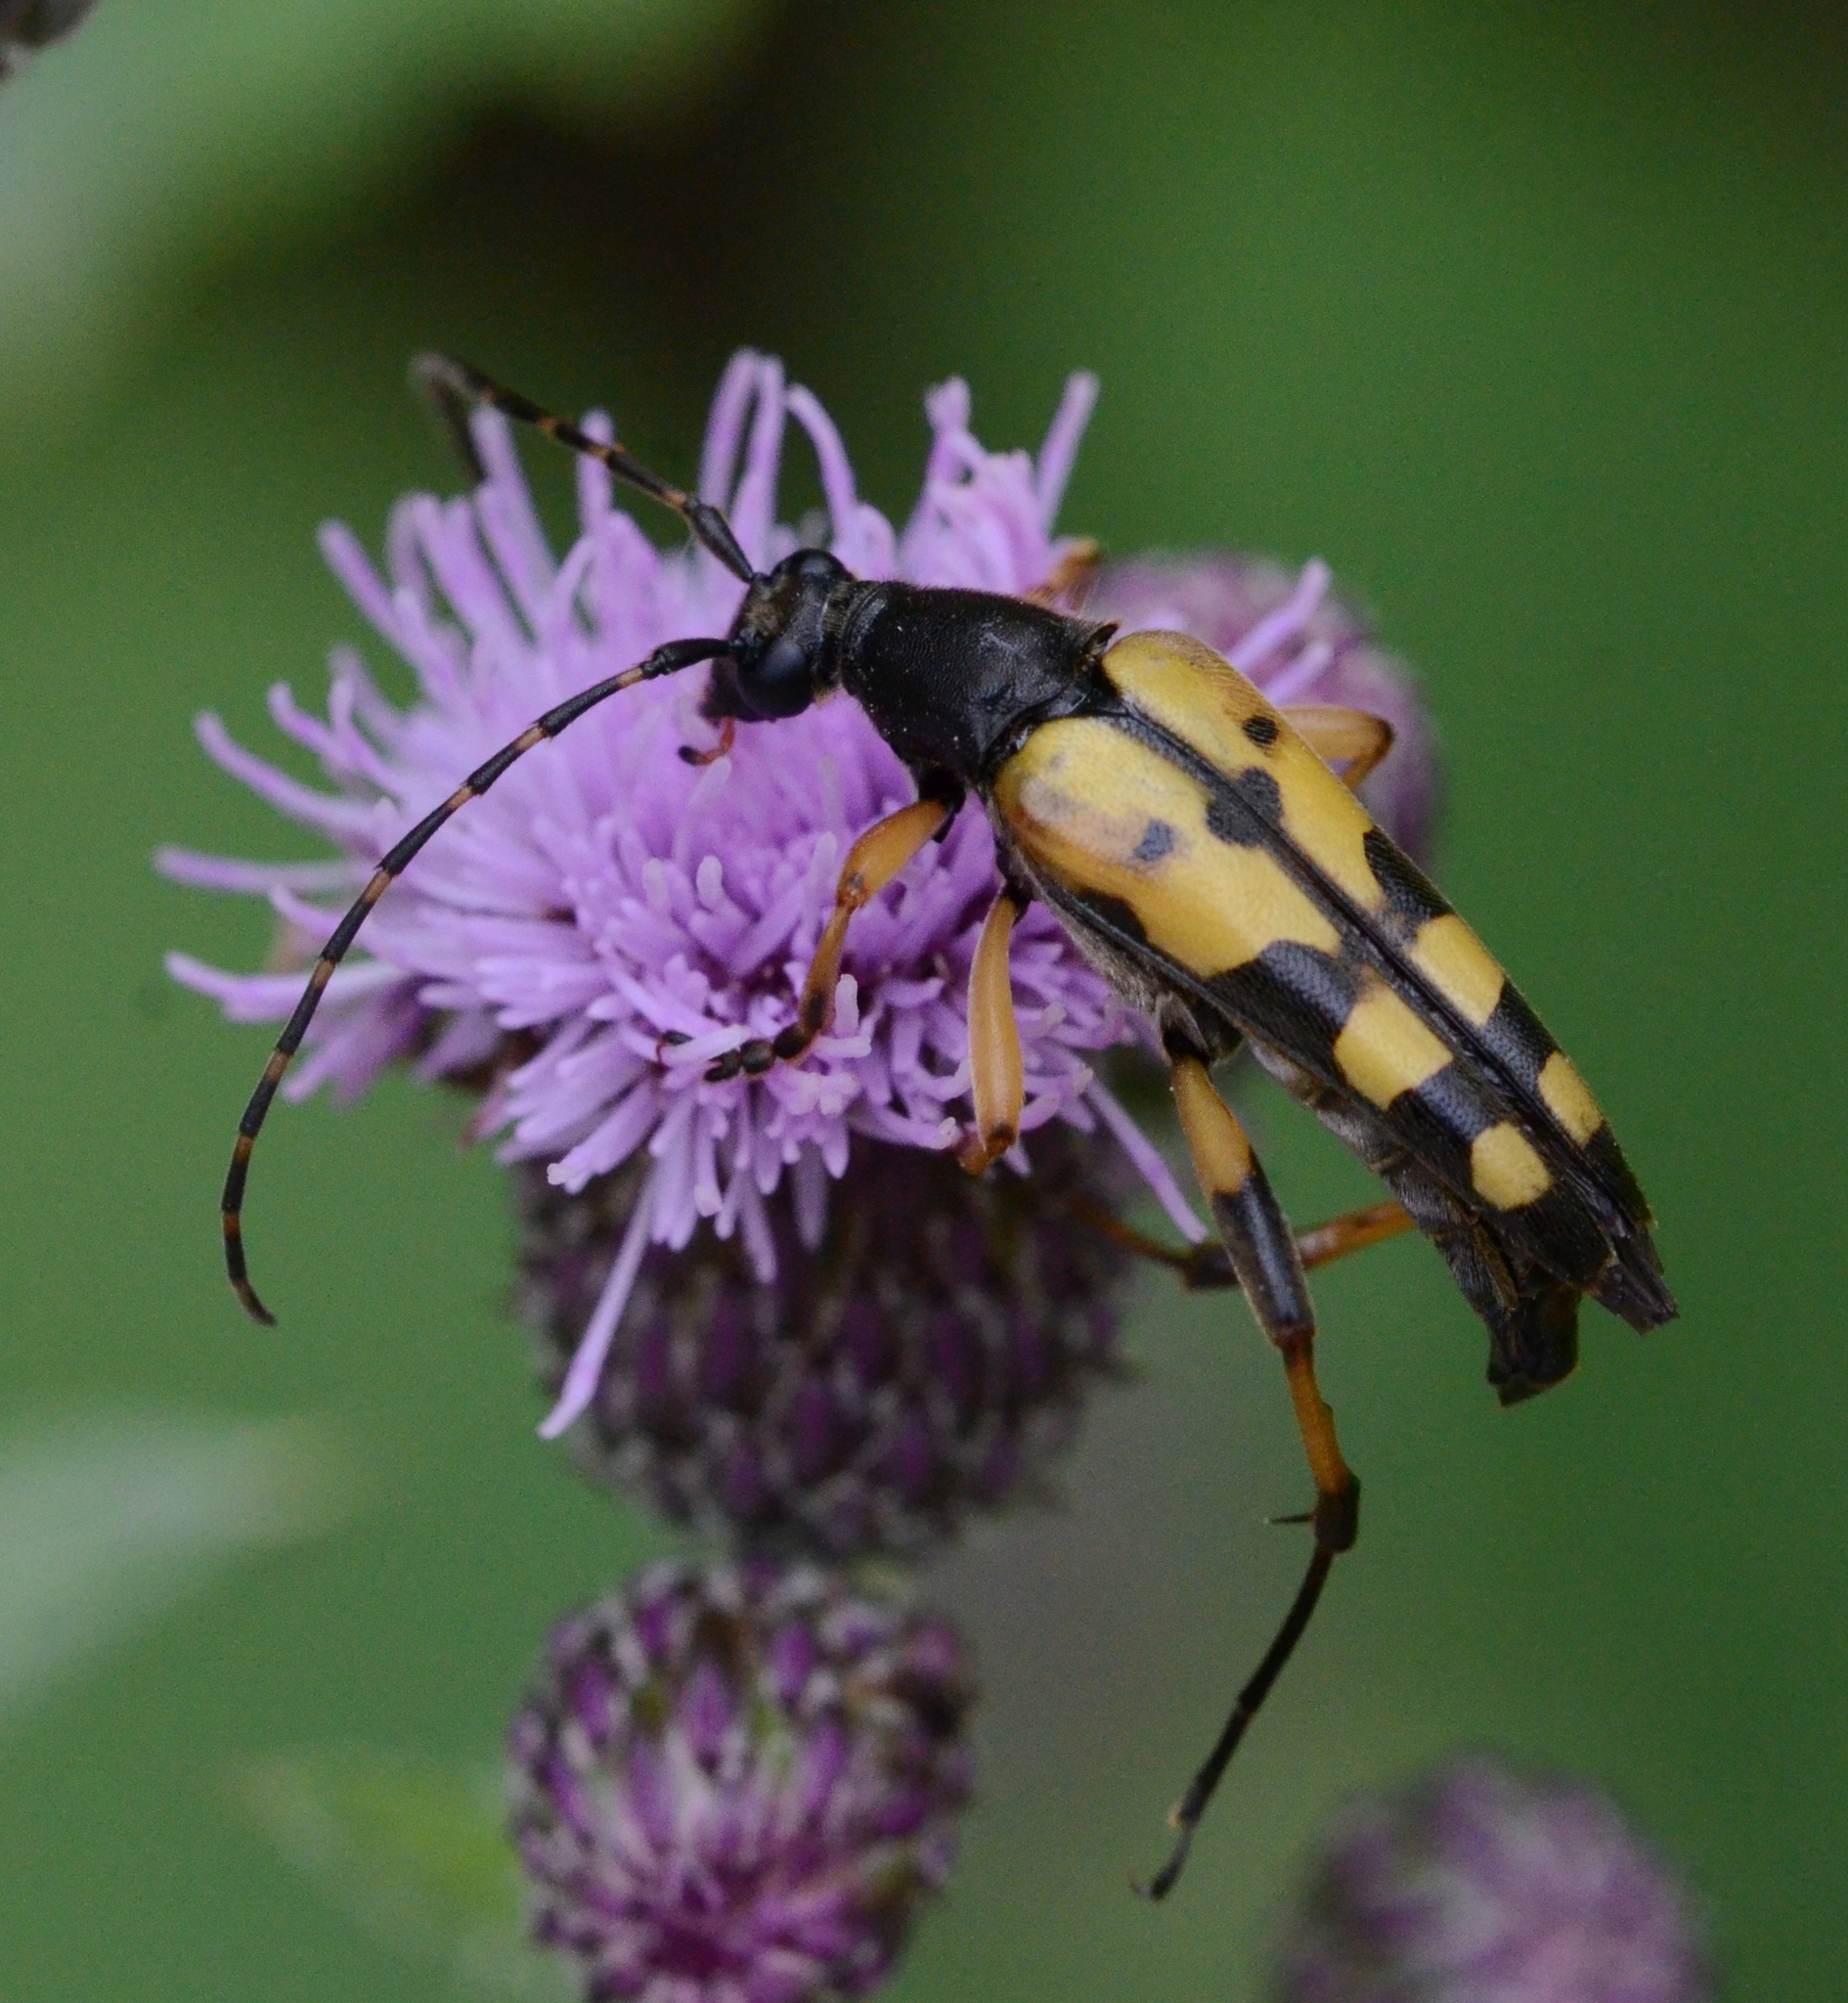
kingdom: Animalia
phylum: Arthropoda
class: Insecta
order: Coleoptera
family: Cerambycidae
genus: Rutpela
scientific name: Rutpela maculata
